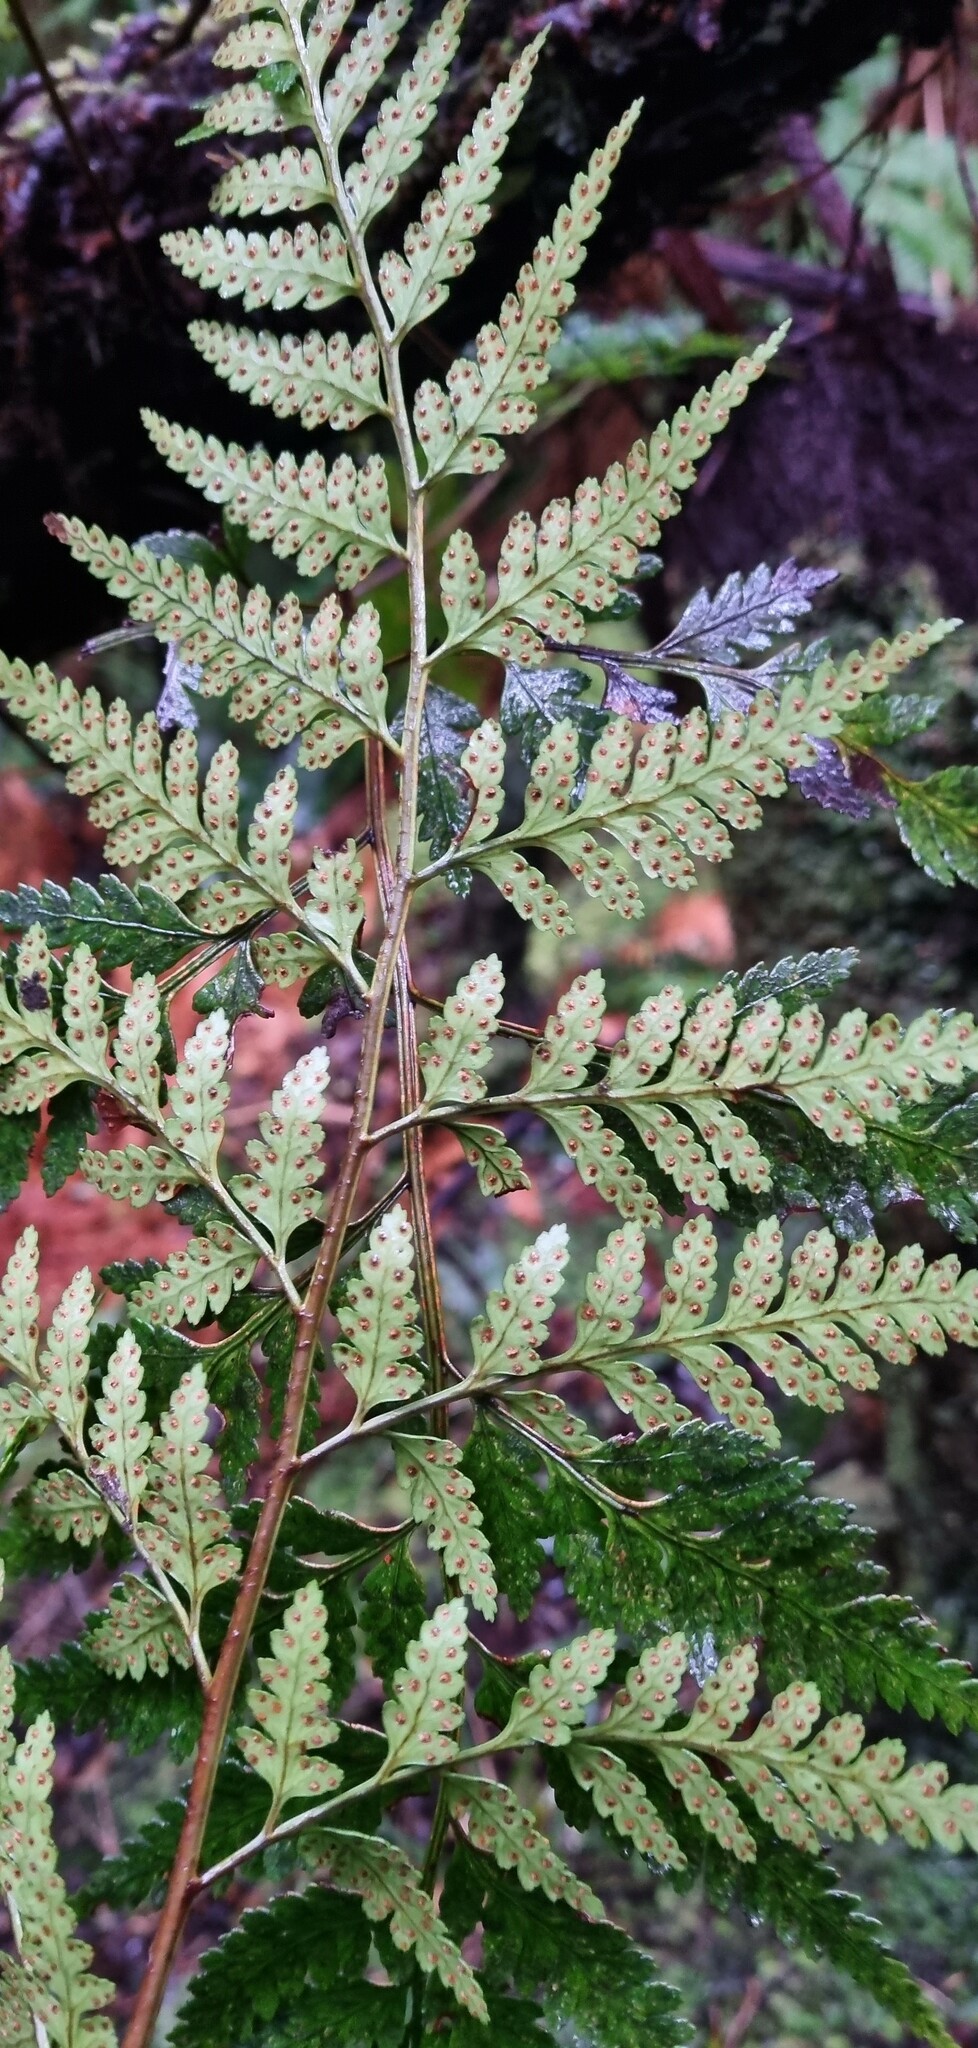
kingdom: Plantae
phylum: Tracheophyta
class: Polypodiopsida
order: Polypodiales
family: Dryopteridaceae
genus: Rumohra
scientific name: Rumohra adiantiformis
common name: Leather fern
